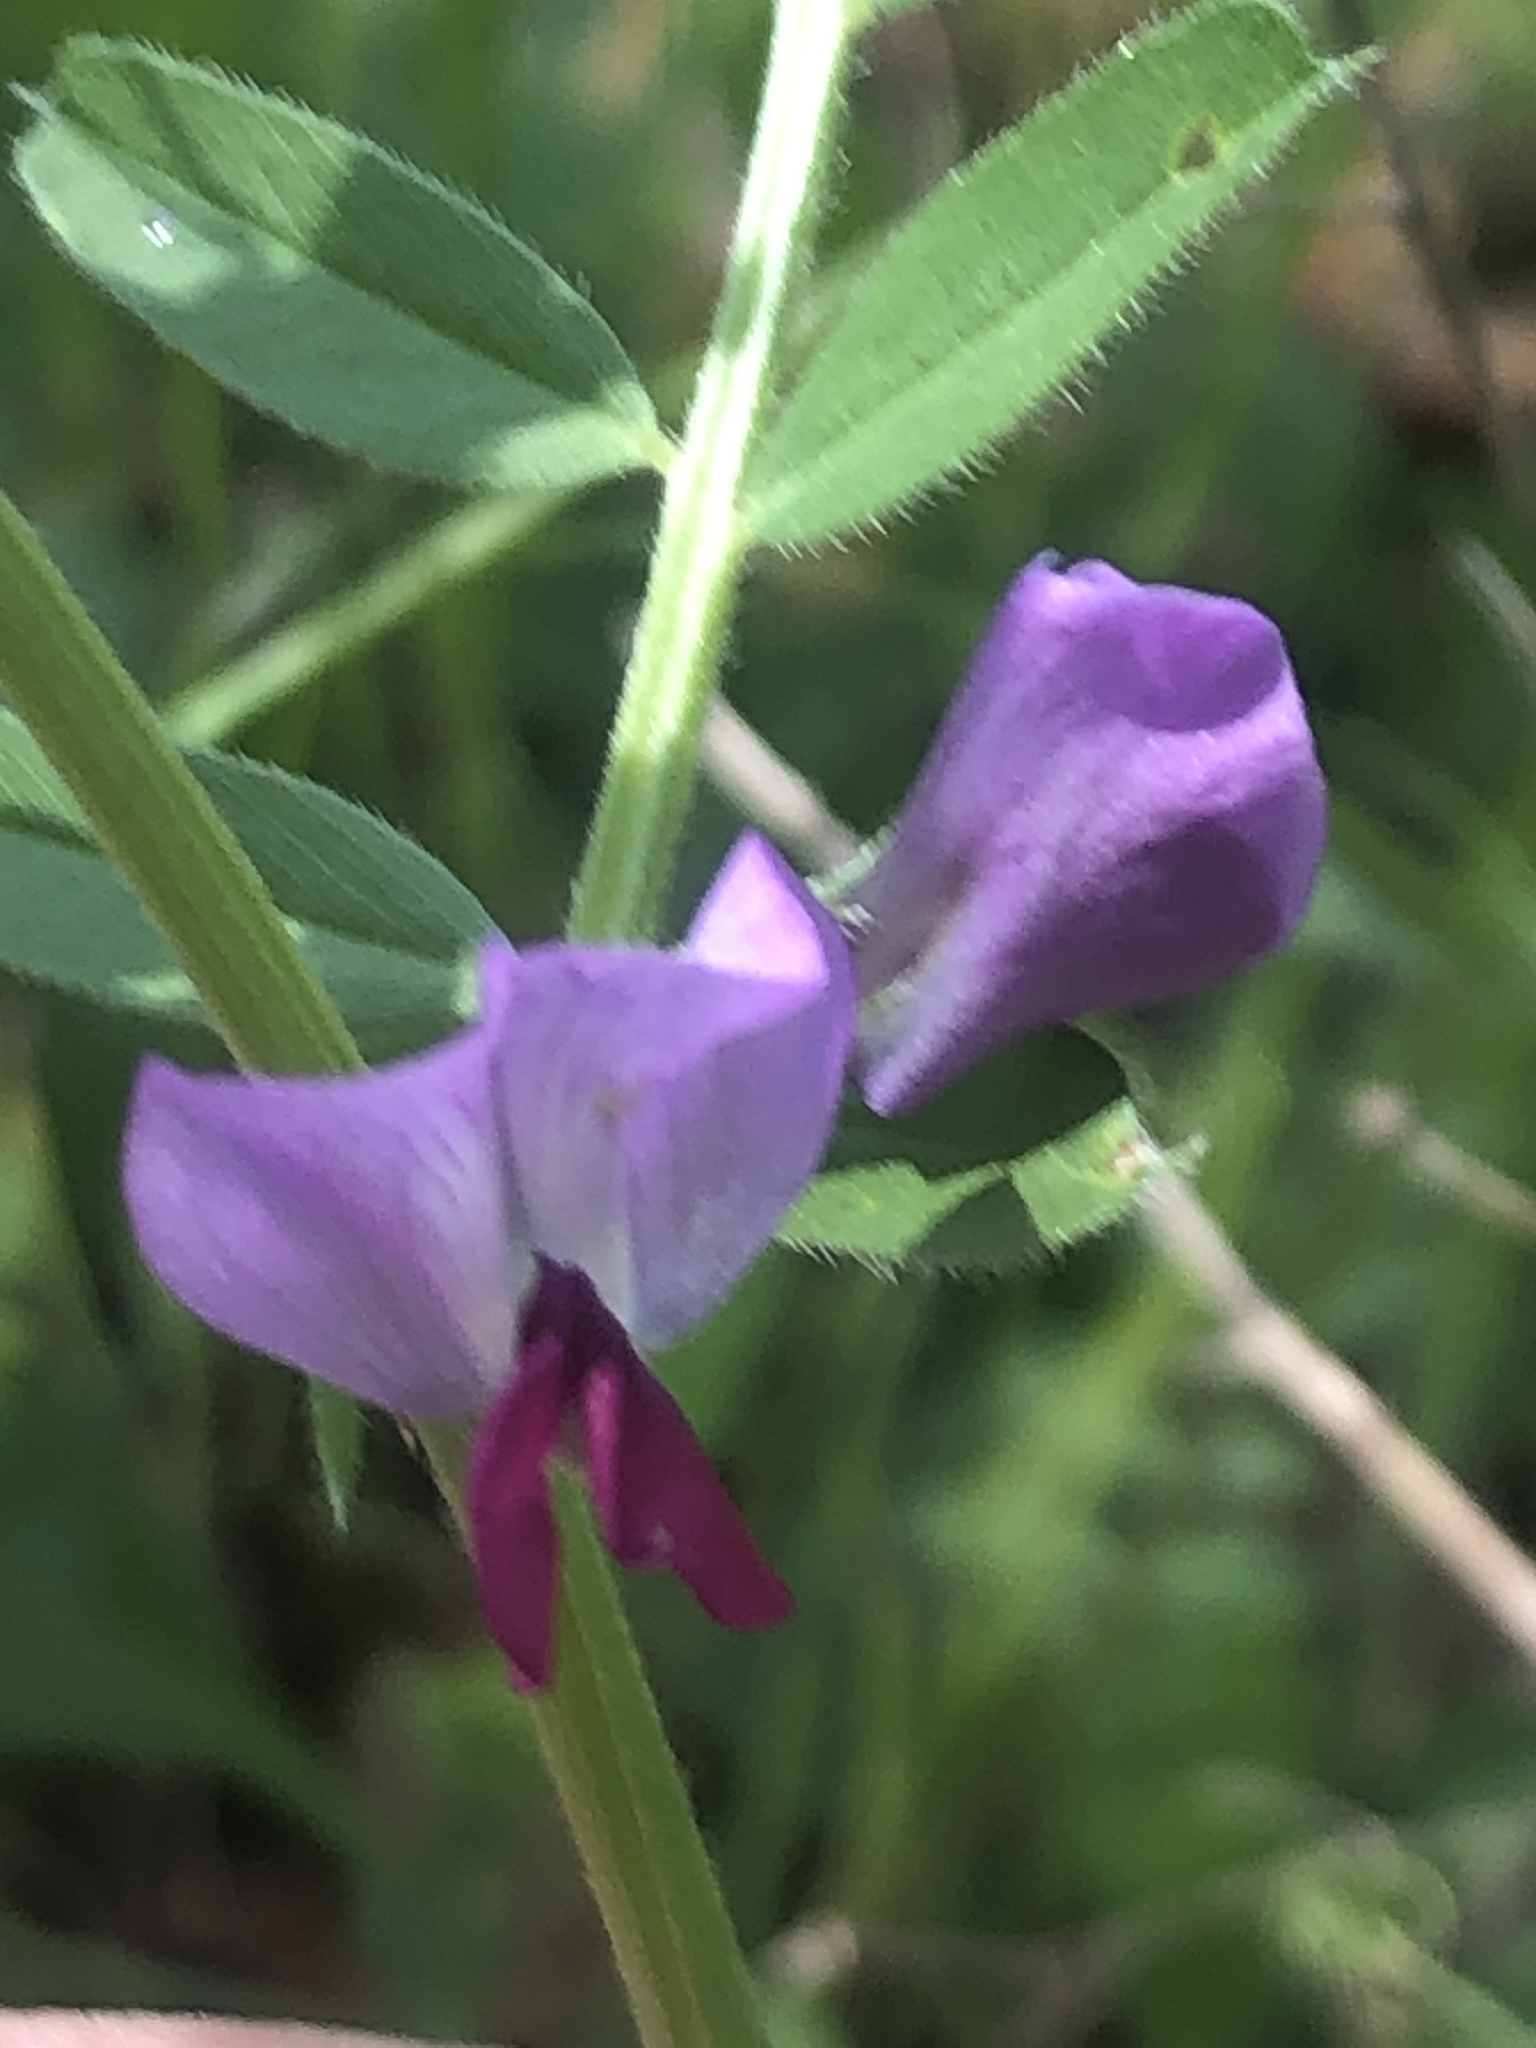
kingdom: Plantae
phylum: Tracheophyta
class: Magnoliopsida
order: Fabales
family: Fabaceae
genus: Vicia
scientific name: Vicia sativa
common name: Garden vetch
